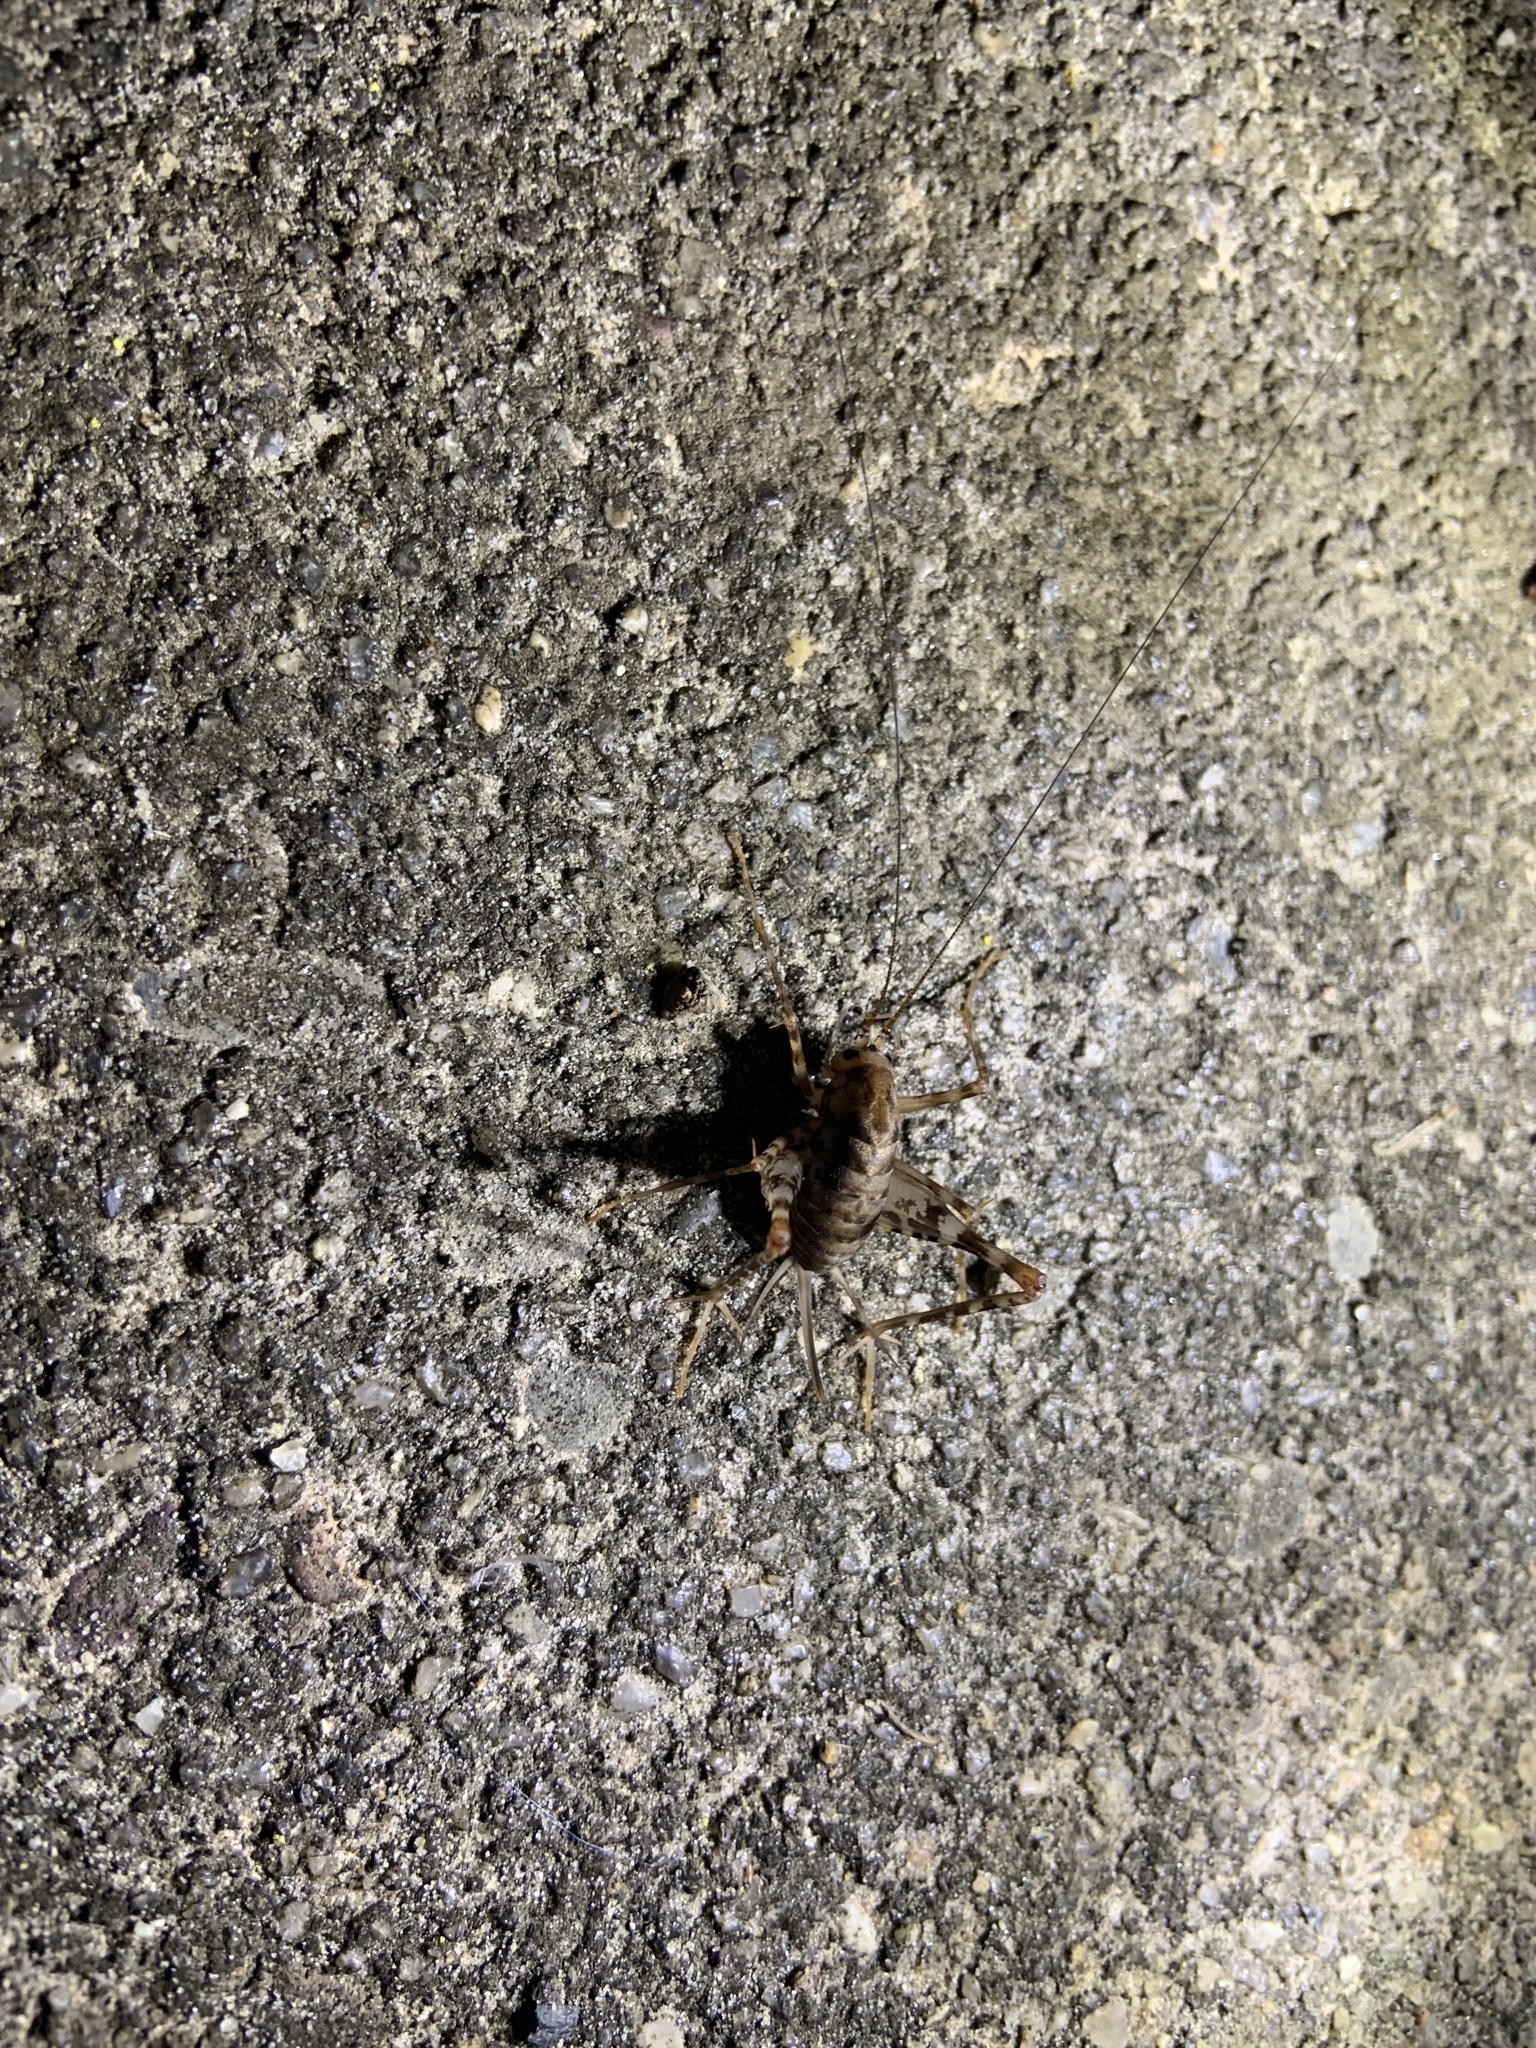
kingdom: Animalia
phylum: Arthropoda
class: Insecta
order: Orthoptera
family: Rhaphidophoridae
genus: Tachycines
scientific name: Tachycines asynamorus
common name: Greenhouse camel cricket
